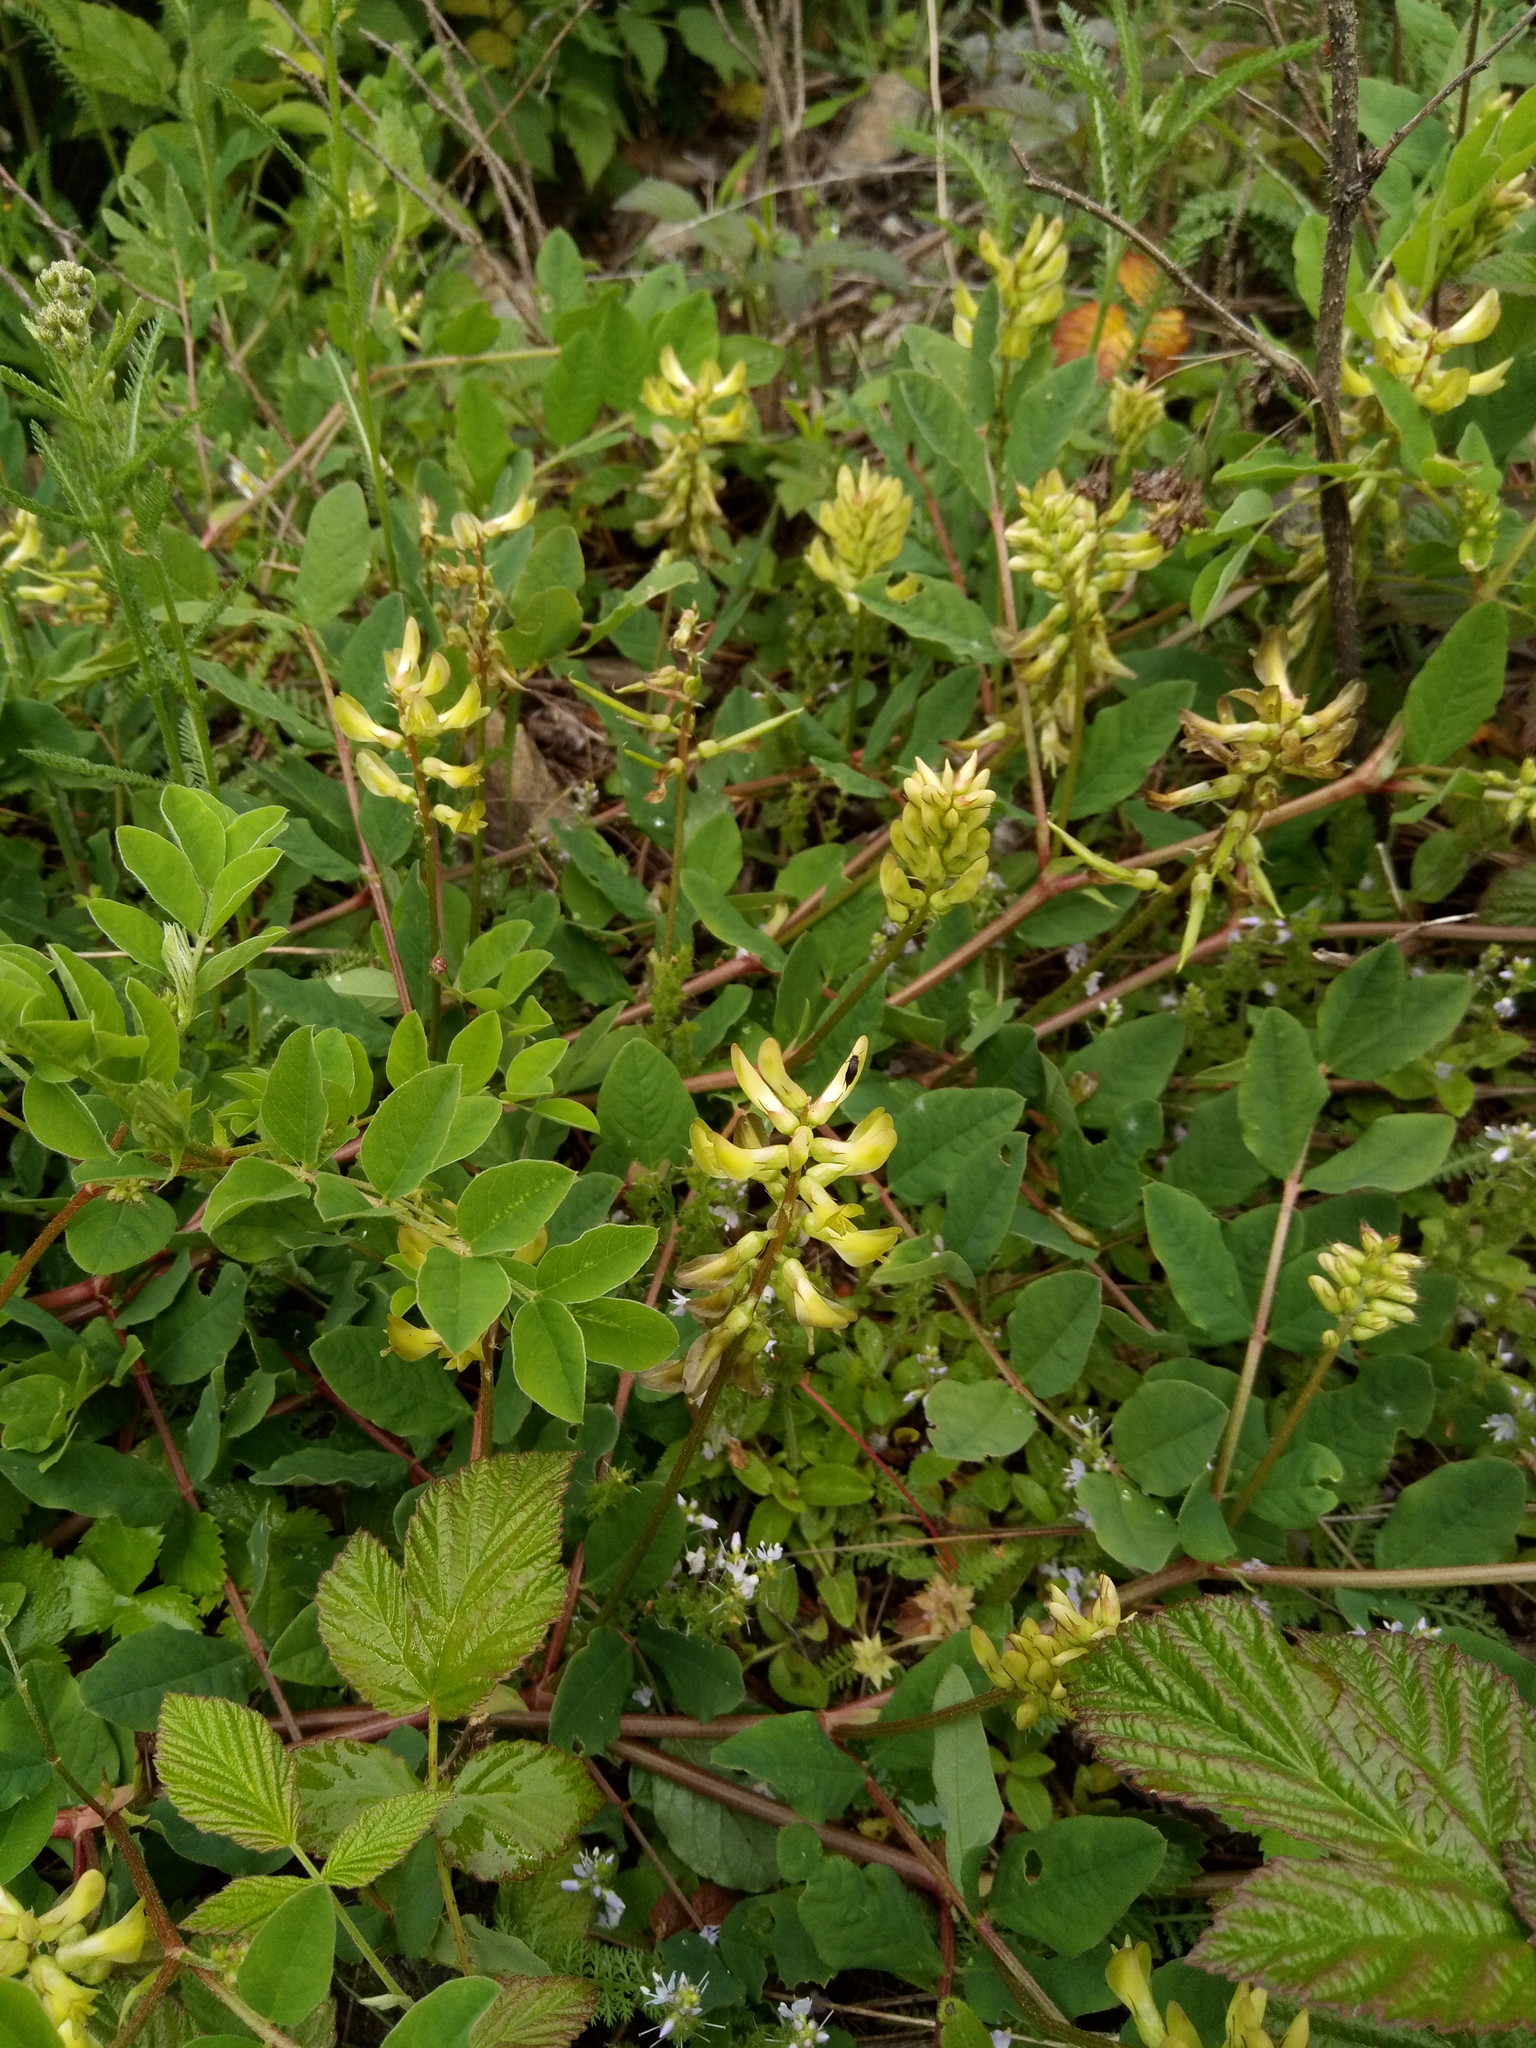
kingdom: Plantae
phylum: Tracheophyta
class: Magnoliopsida
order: Fabales
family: Fabaceae
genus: Astragalus
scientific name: Astragalus glycyphyllos
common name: Wild liquorice
